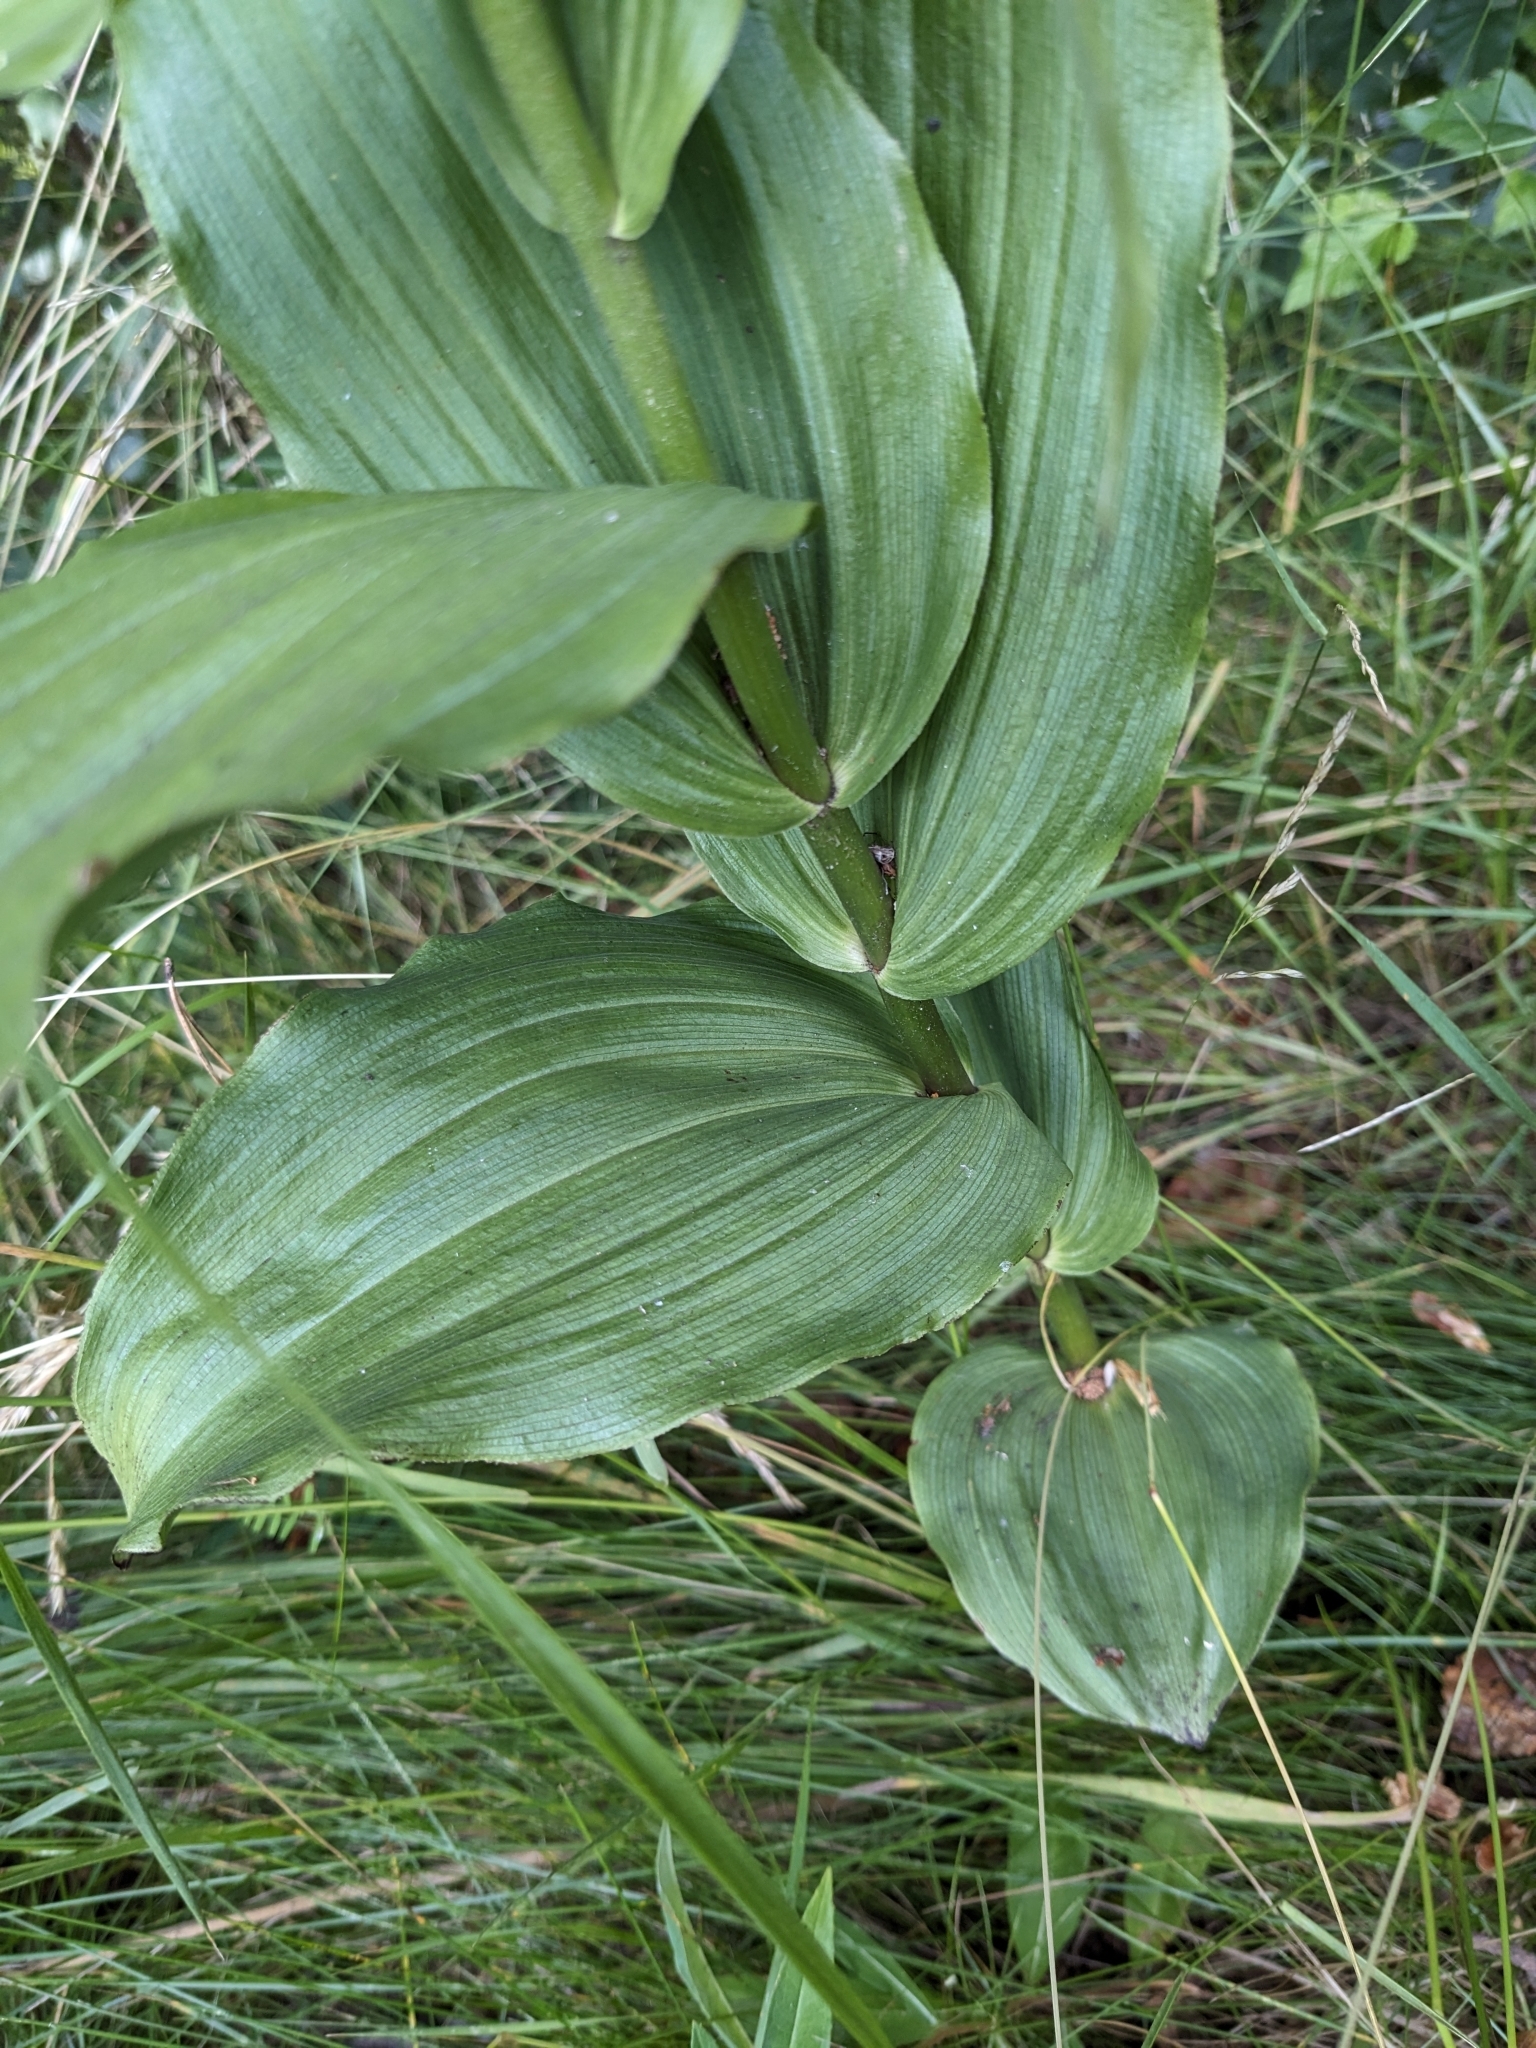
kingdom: Plantae
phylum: Tracheophyta
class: Liliopsida
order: Asparagales
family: Orchidaceae
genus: Epipactis
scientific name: Epipactis helleborine
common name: Broad-leaved helleborine
